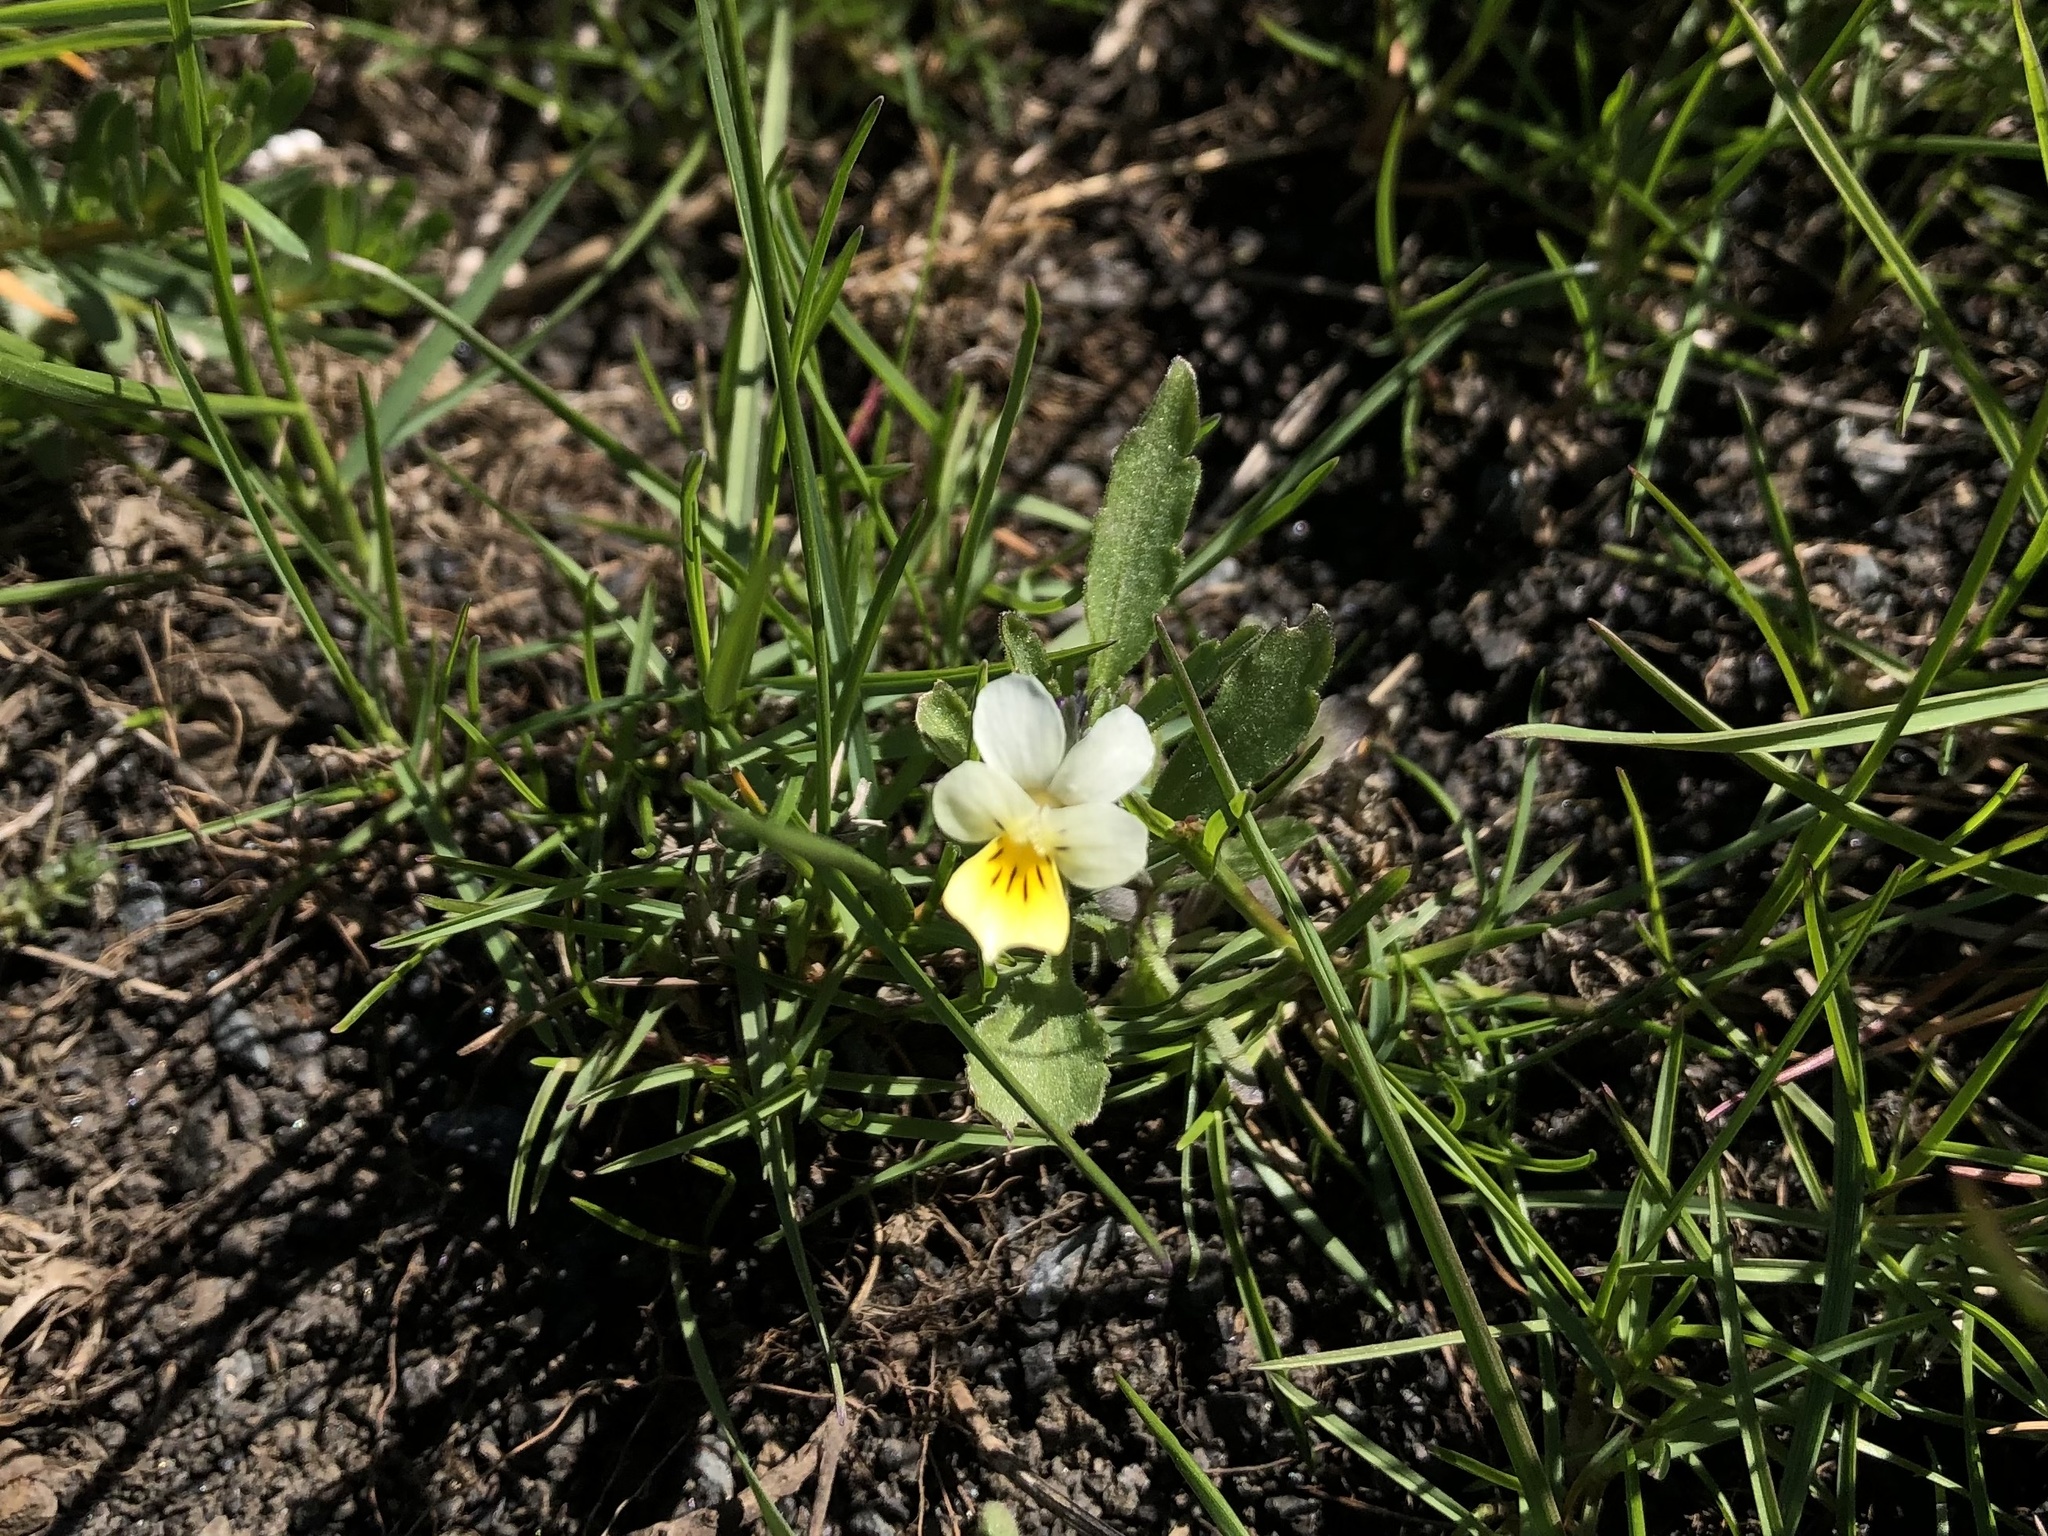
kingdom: Plantae
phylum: Tracheophyta
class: Magnoliopsida
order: Malpighiales
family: Violaceae
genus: Viola
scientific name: Viola arvensis
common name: Field pansy
